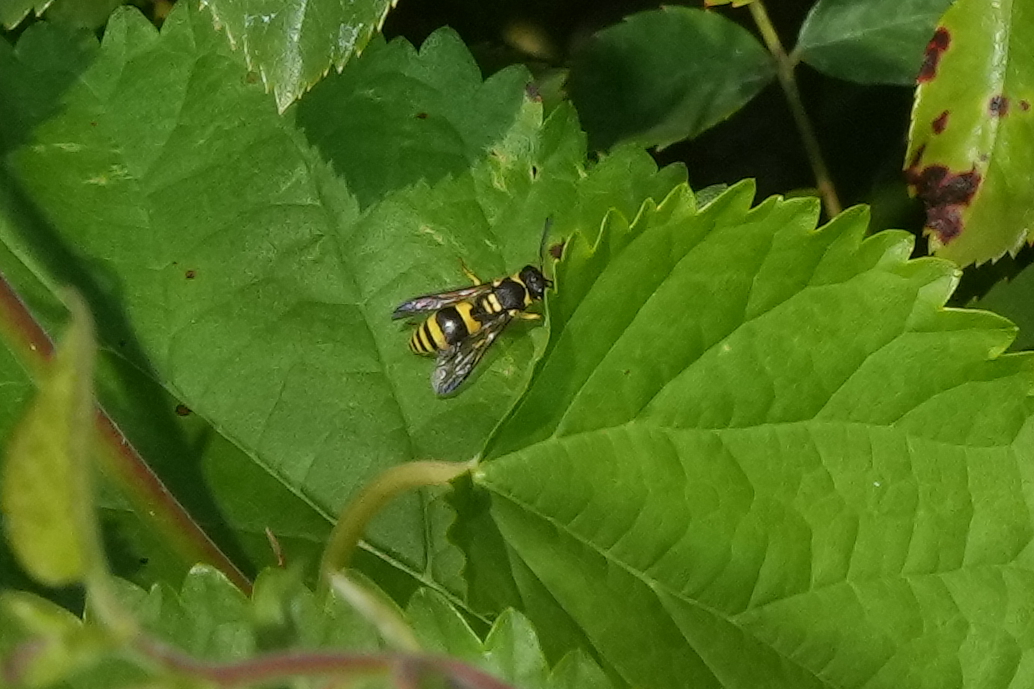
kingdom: Animalia
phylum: Arthropoda
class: Insecta
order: Hymenoptera
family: Vespidae
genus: Ancistrocerus
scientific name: Ancistrocerus gazella
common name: European tube wasp
